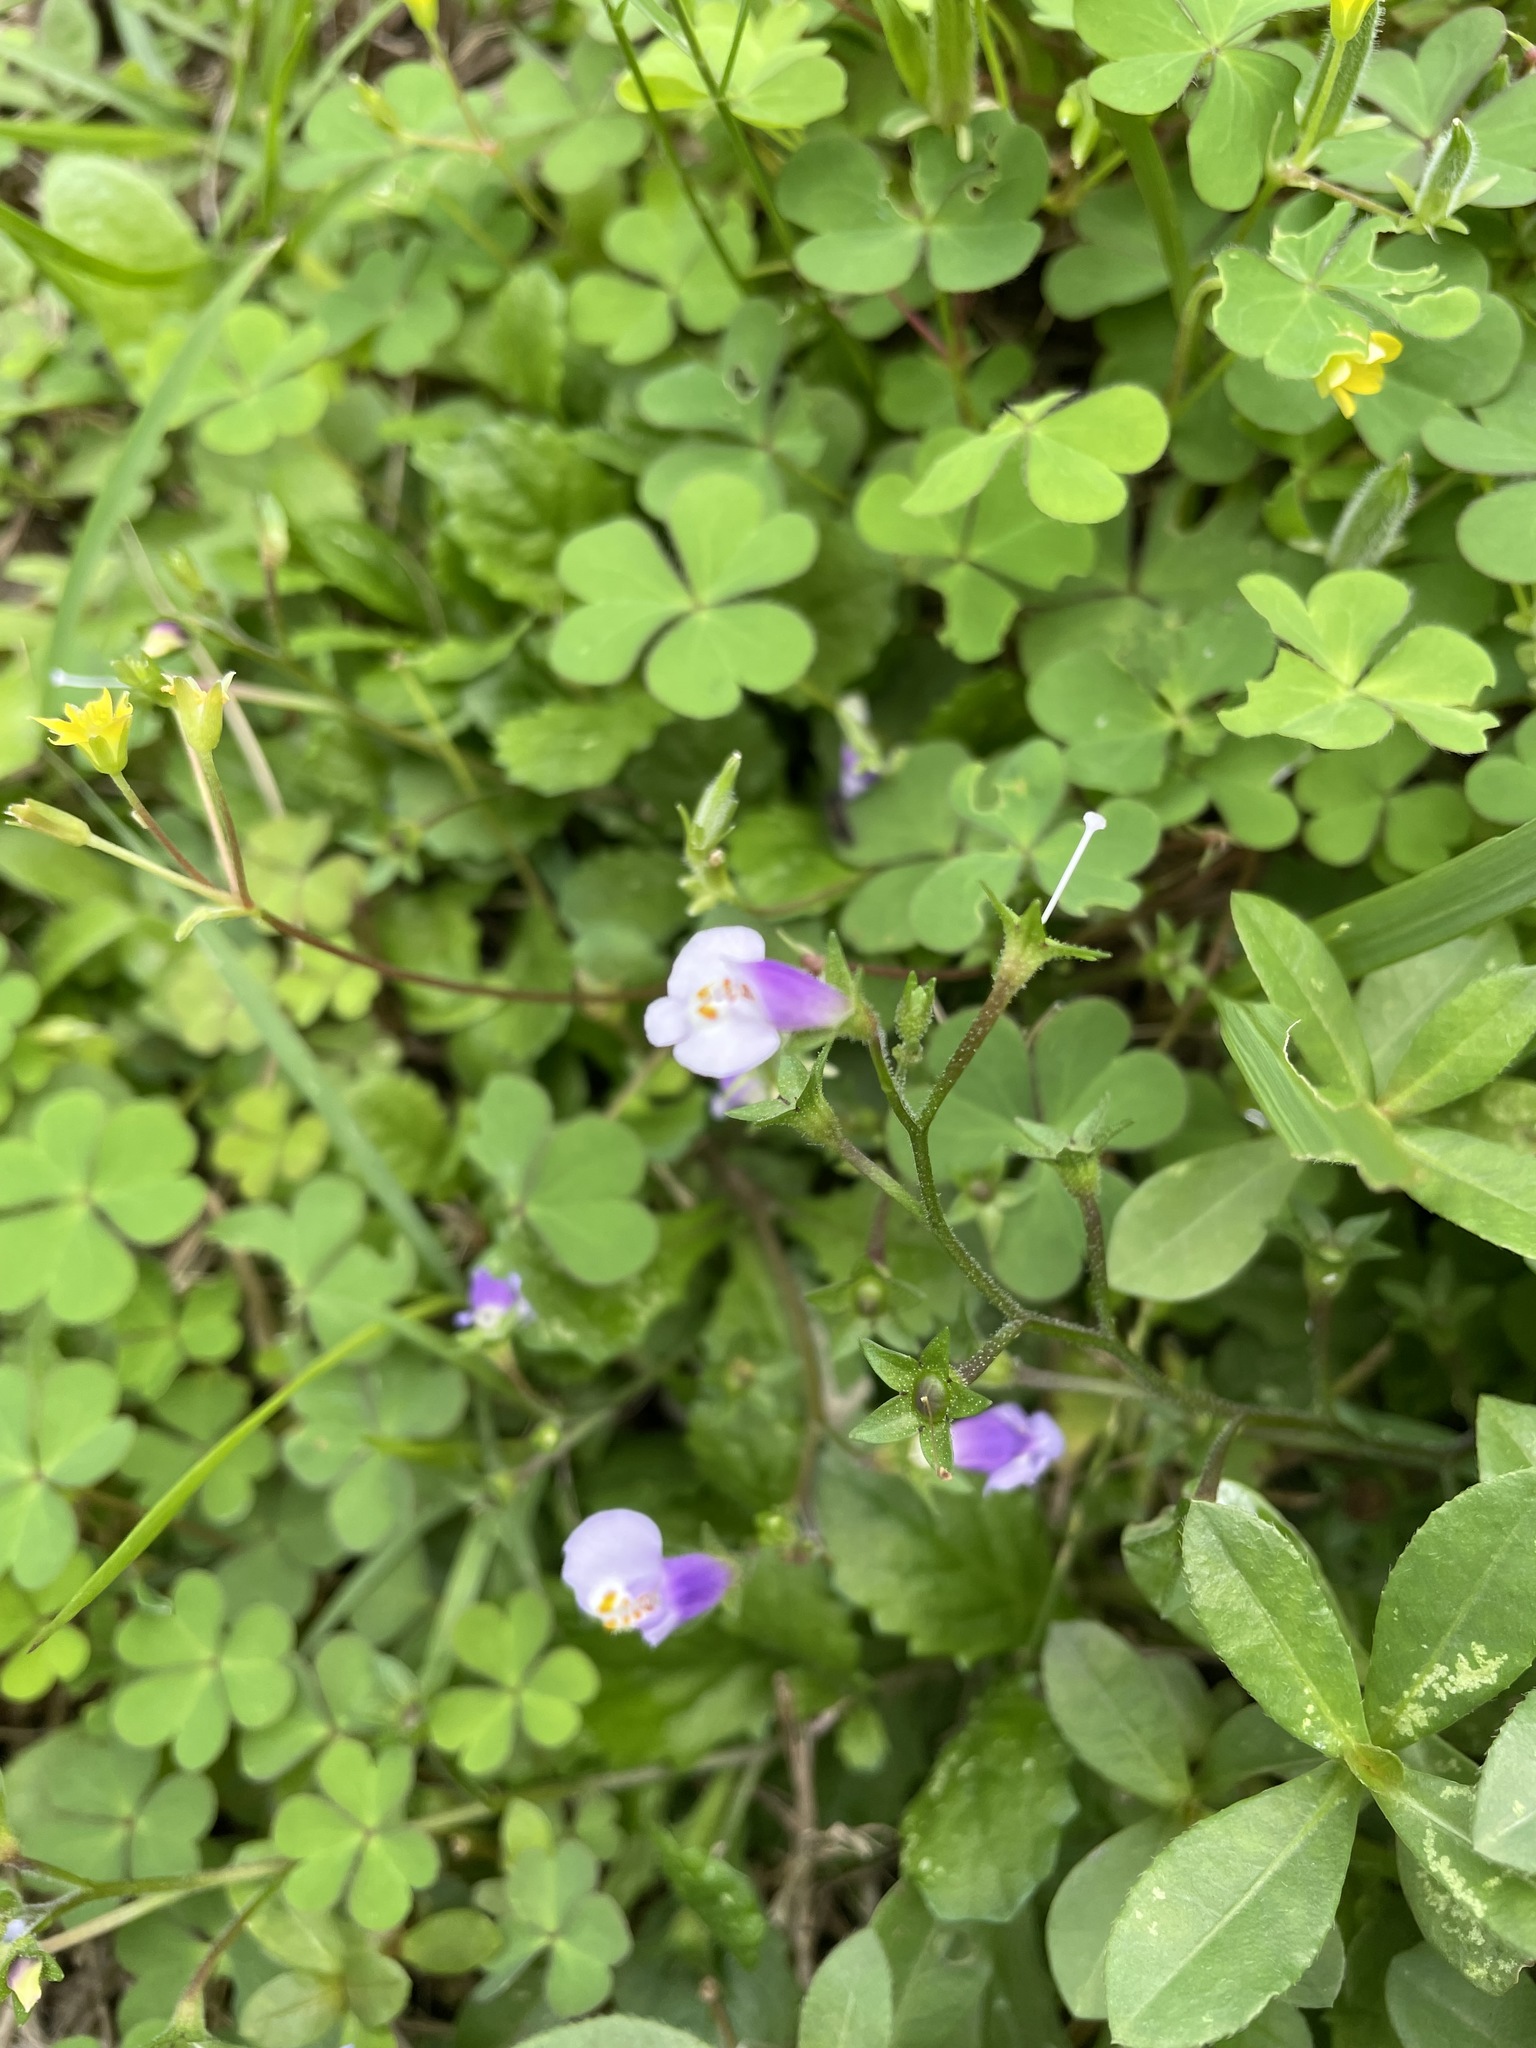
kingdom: Plantae
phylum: Tracheophyta
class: Magnoliopsida
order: Lamiales
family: Mazaceae
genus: Mazus
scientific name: Mazus pumilus
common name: Japanese mazus
